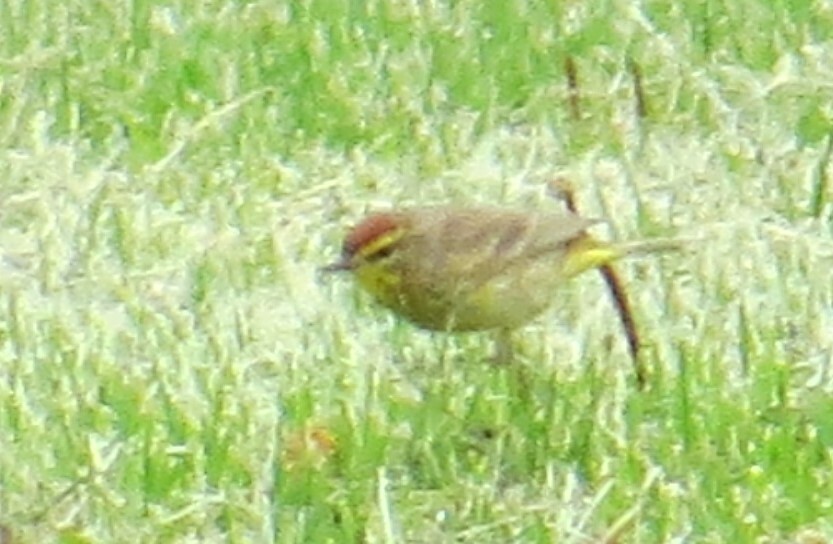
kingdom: Animalia
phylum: Chordata
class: Aves
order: Passeriformes
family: Parulidae
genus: Setophaga
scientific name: Setophaga palmarum
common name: Palm warbler
